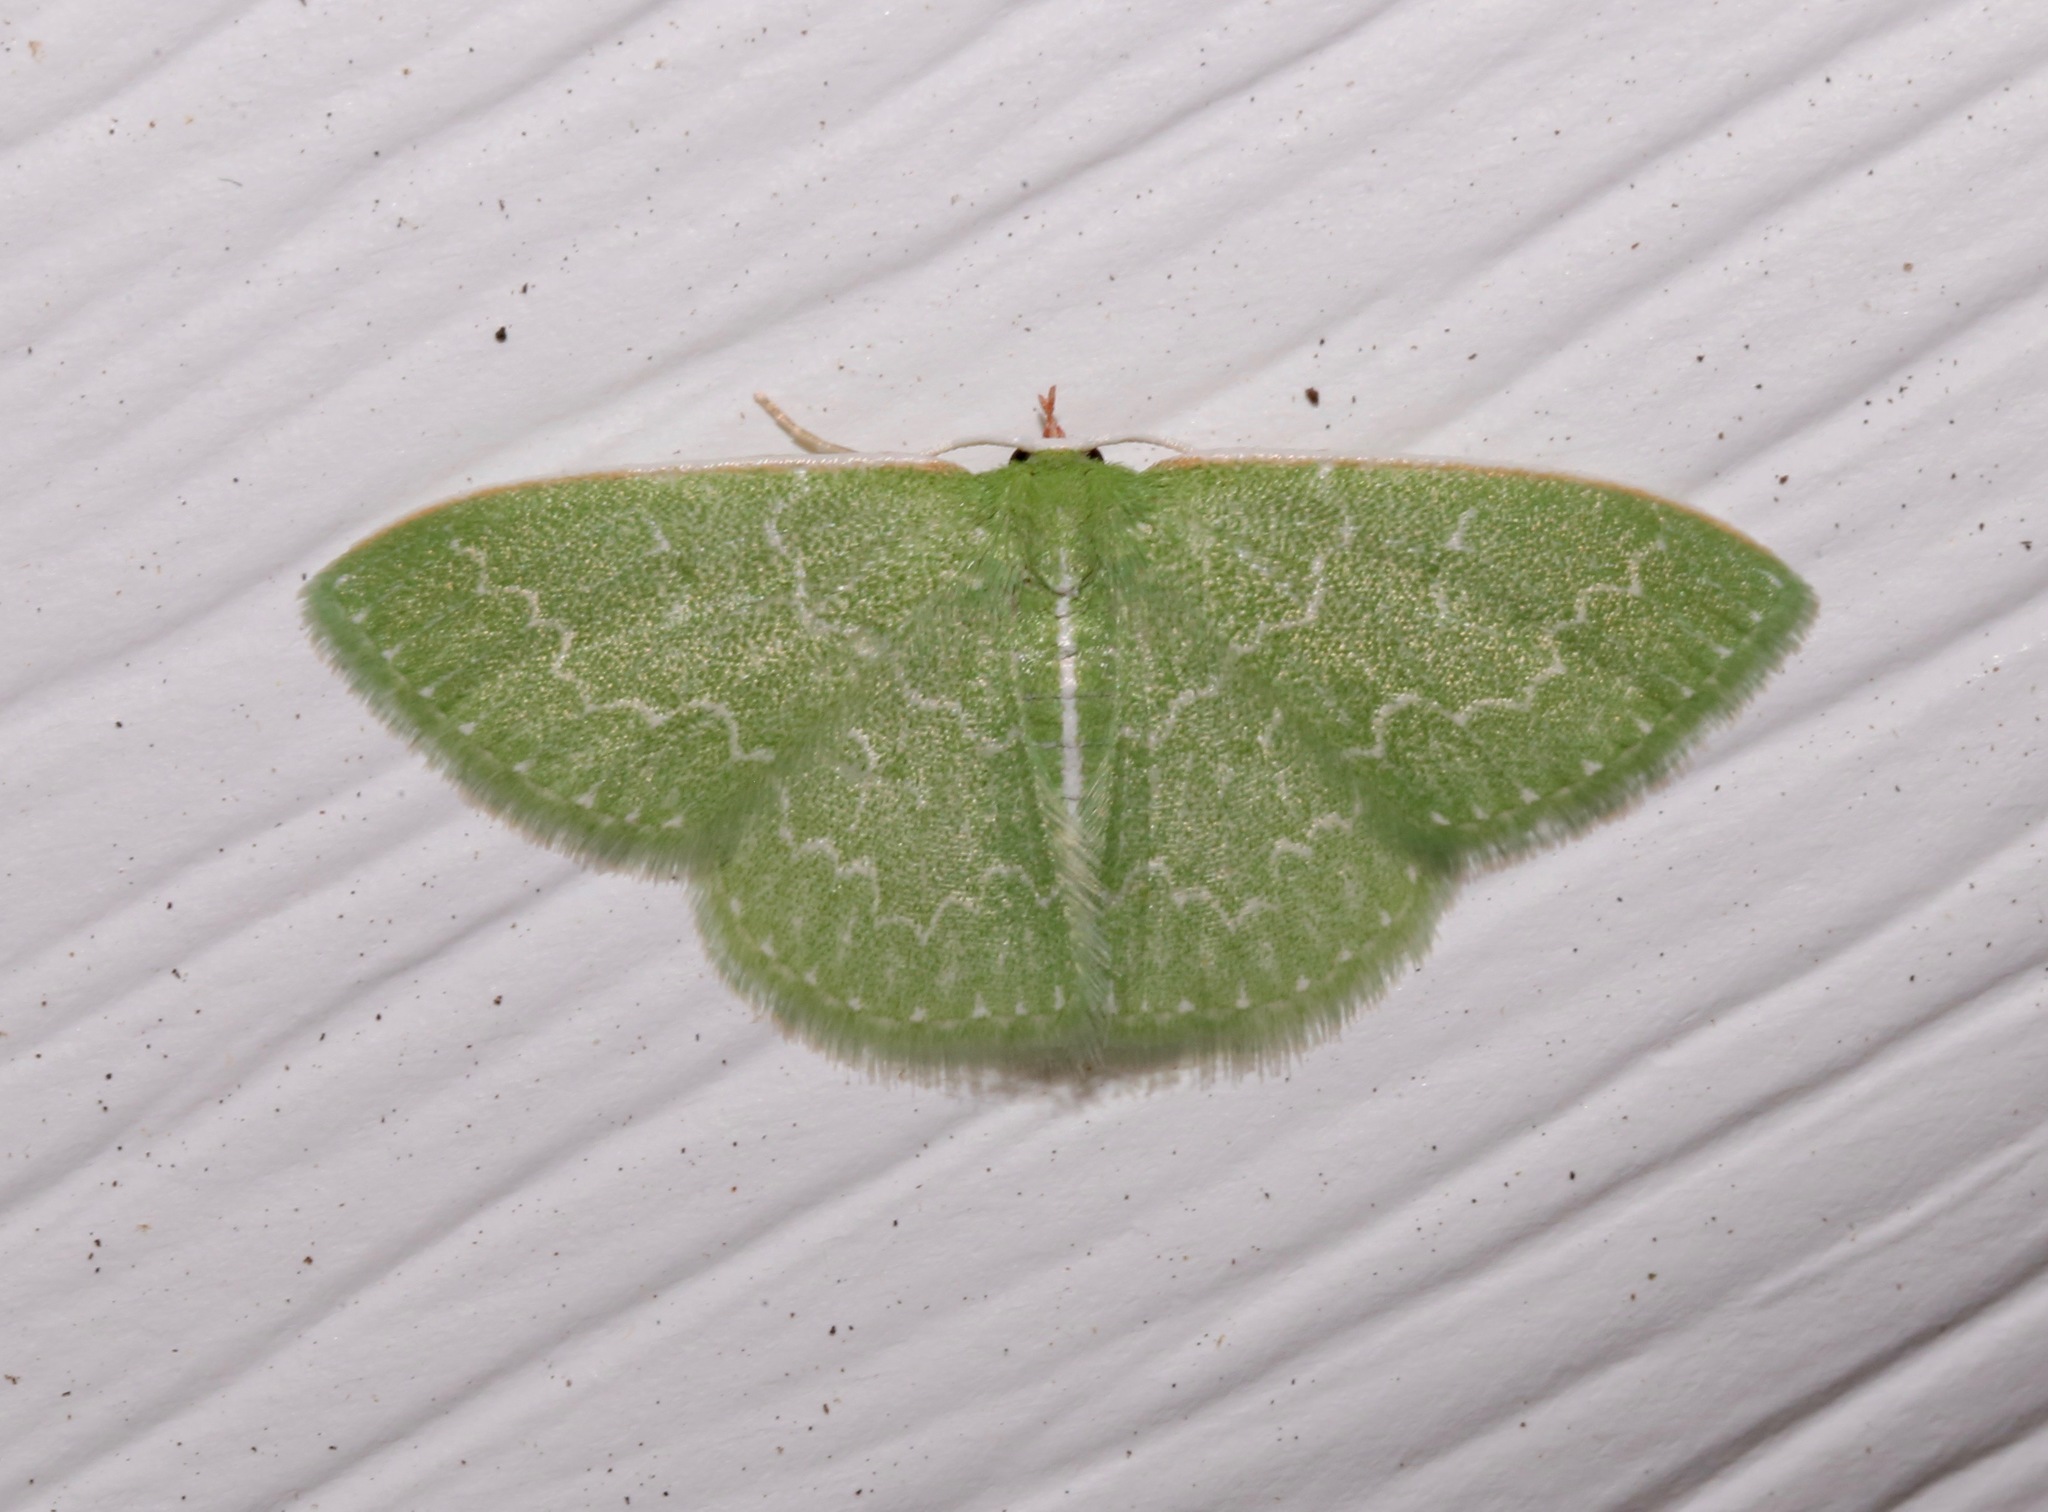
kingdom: Animalia
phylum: Arthropoda
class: Insecta
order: Lepidoptera
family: Geometridae
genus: Synchlora
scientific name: Synchlora frondaria
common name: Southern emerald
